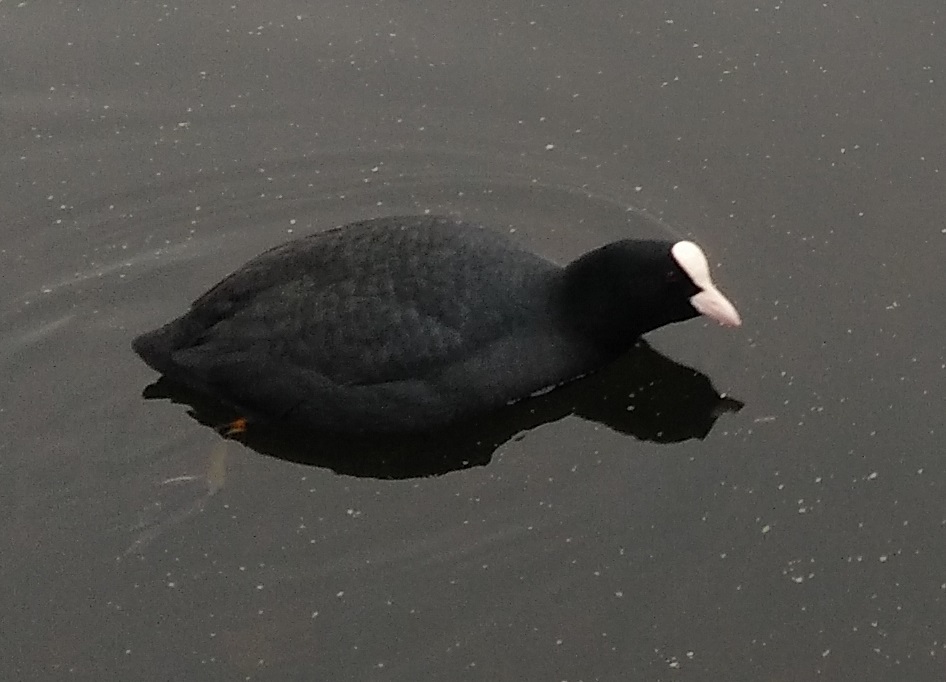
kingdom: Animalia
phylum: Chordata
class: Aves
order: Gruiformes
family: Rallidae
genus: Fulica
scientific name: Fulica atra
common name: Eurasian coot
